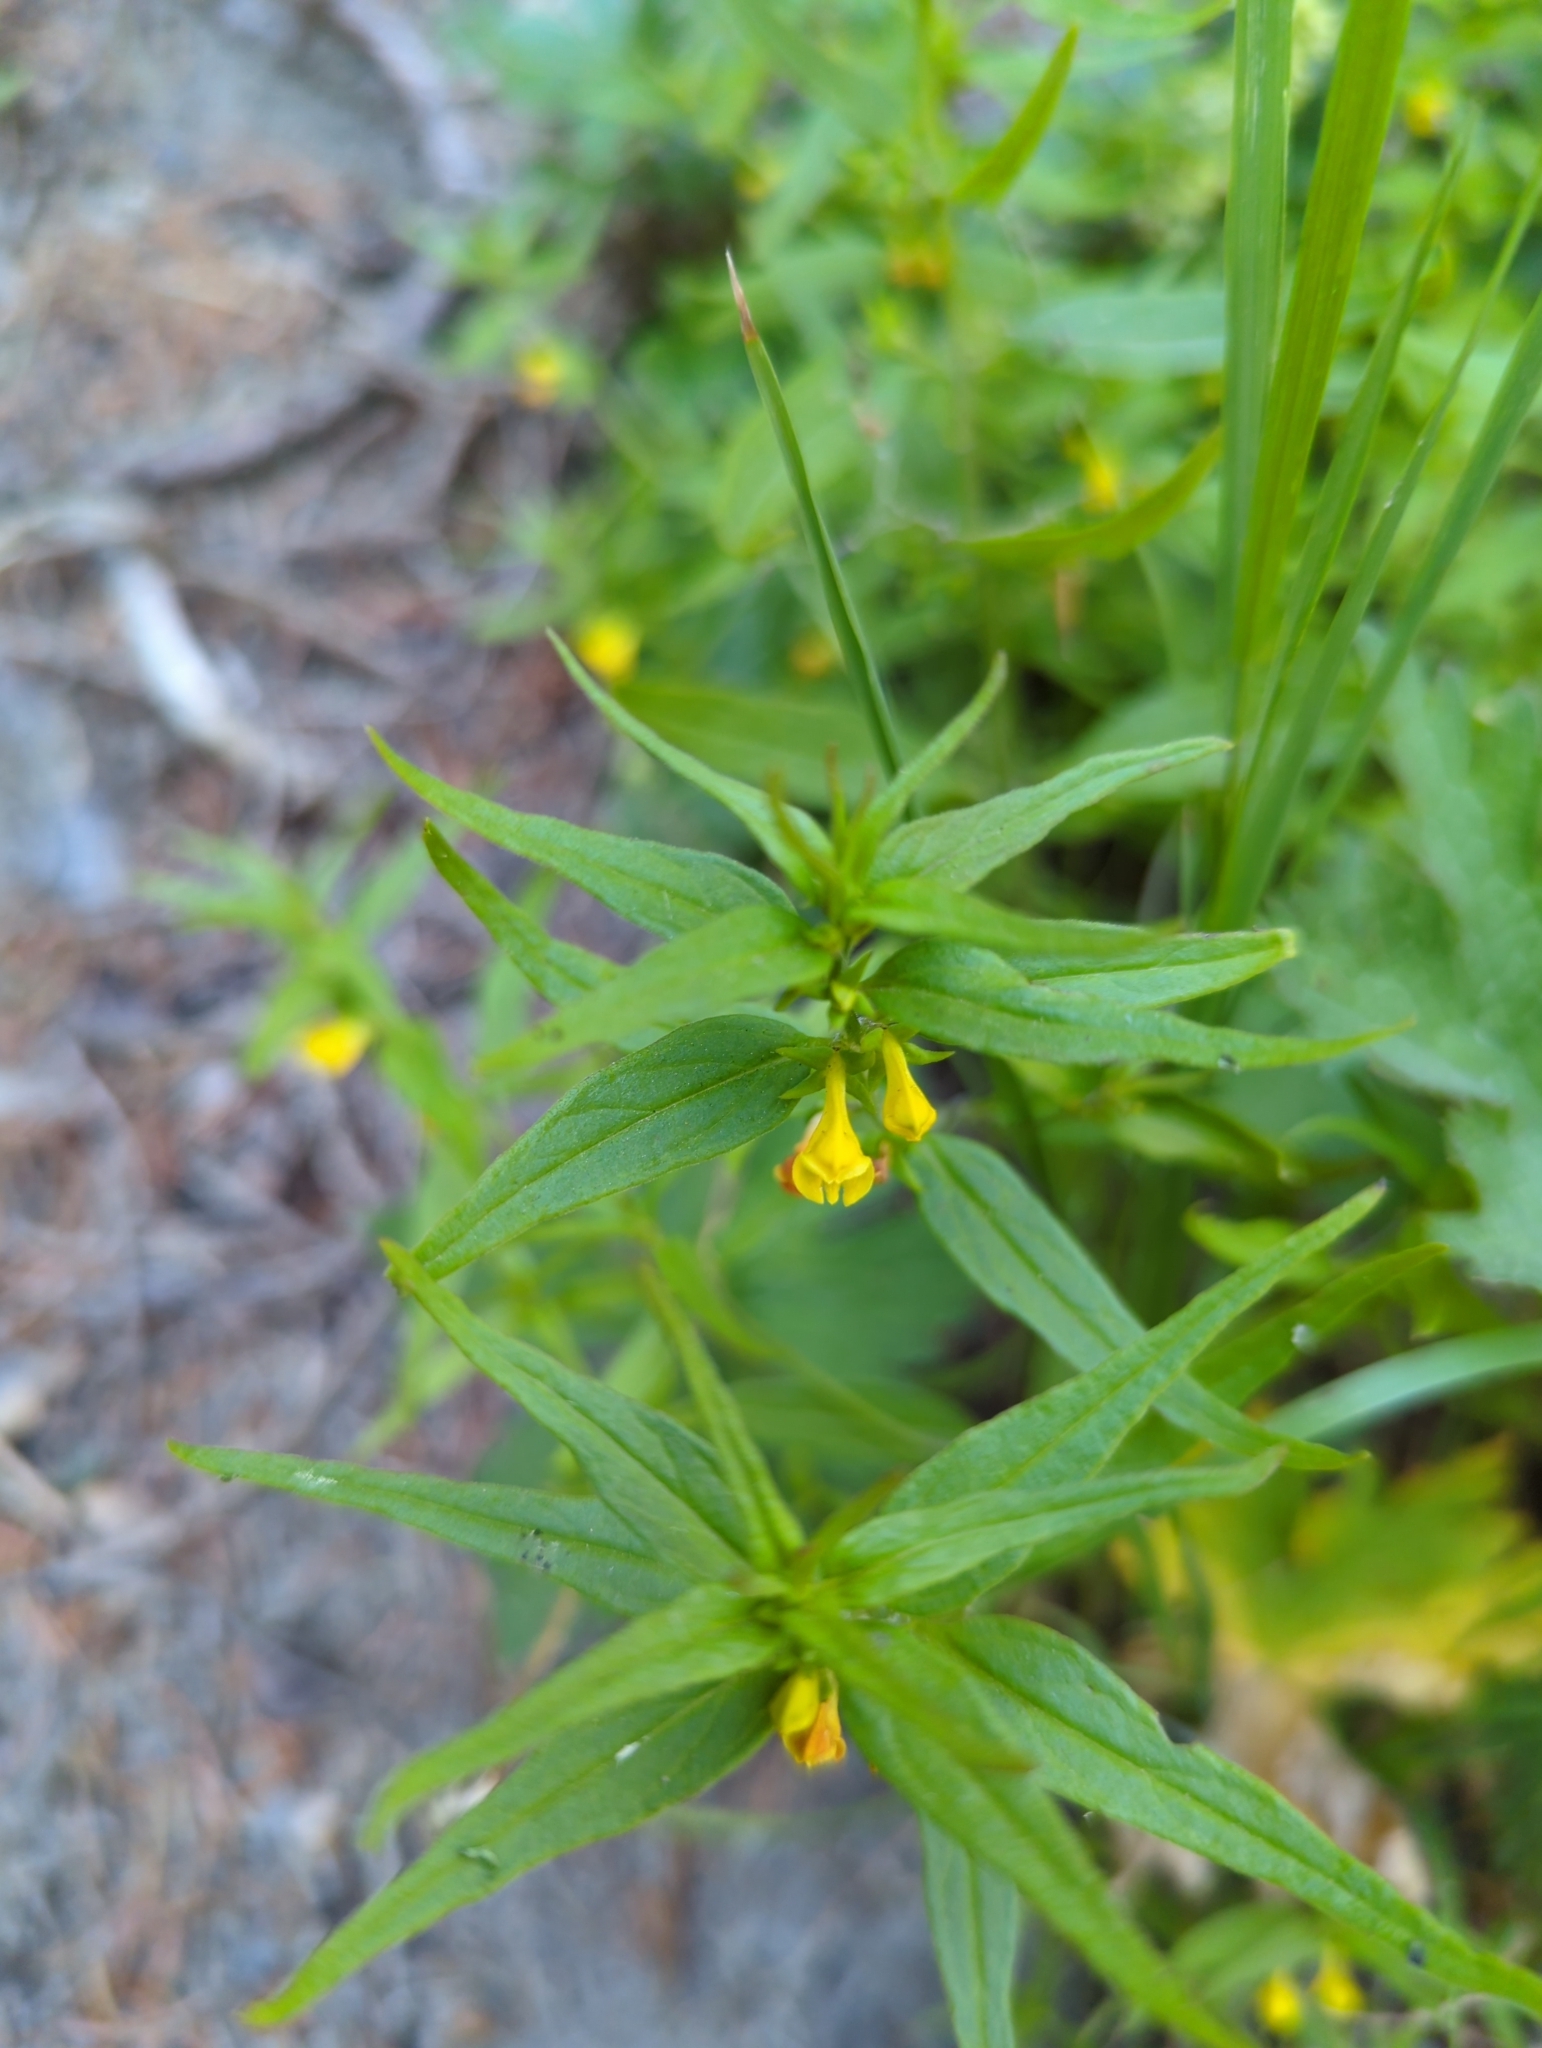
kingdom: Plantae
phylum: Tracheophyta
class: Magnoliopsida
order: Lamiales
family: Orobanchaceae
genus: Melampyrum
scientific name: Melampyrum sylvaticum
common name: Small cow-wheat
